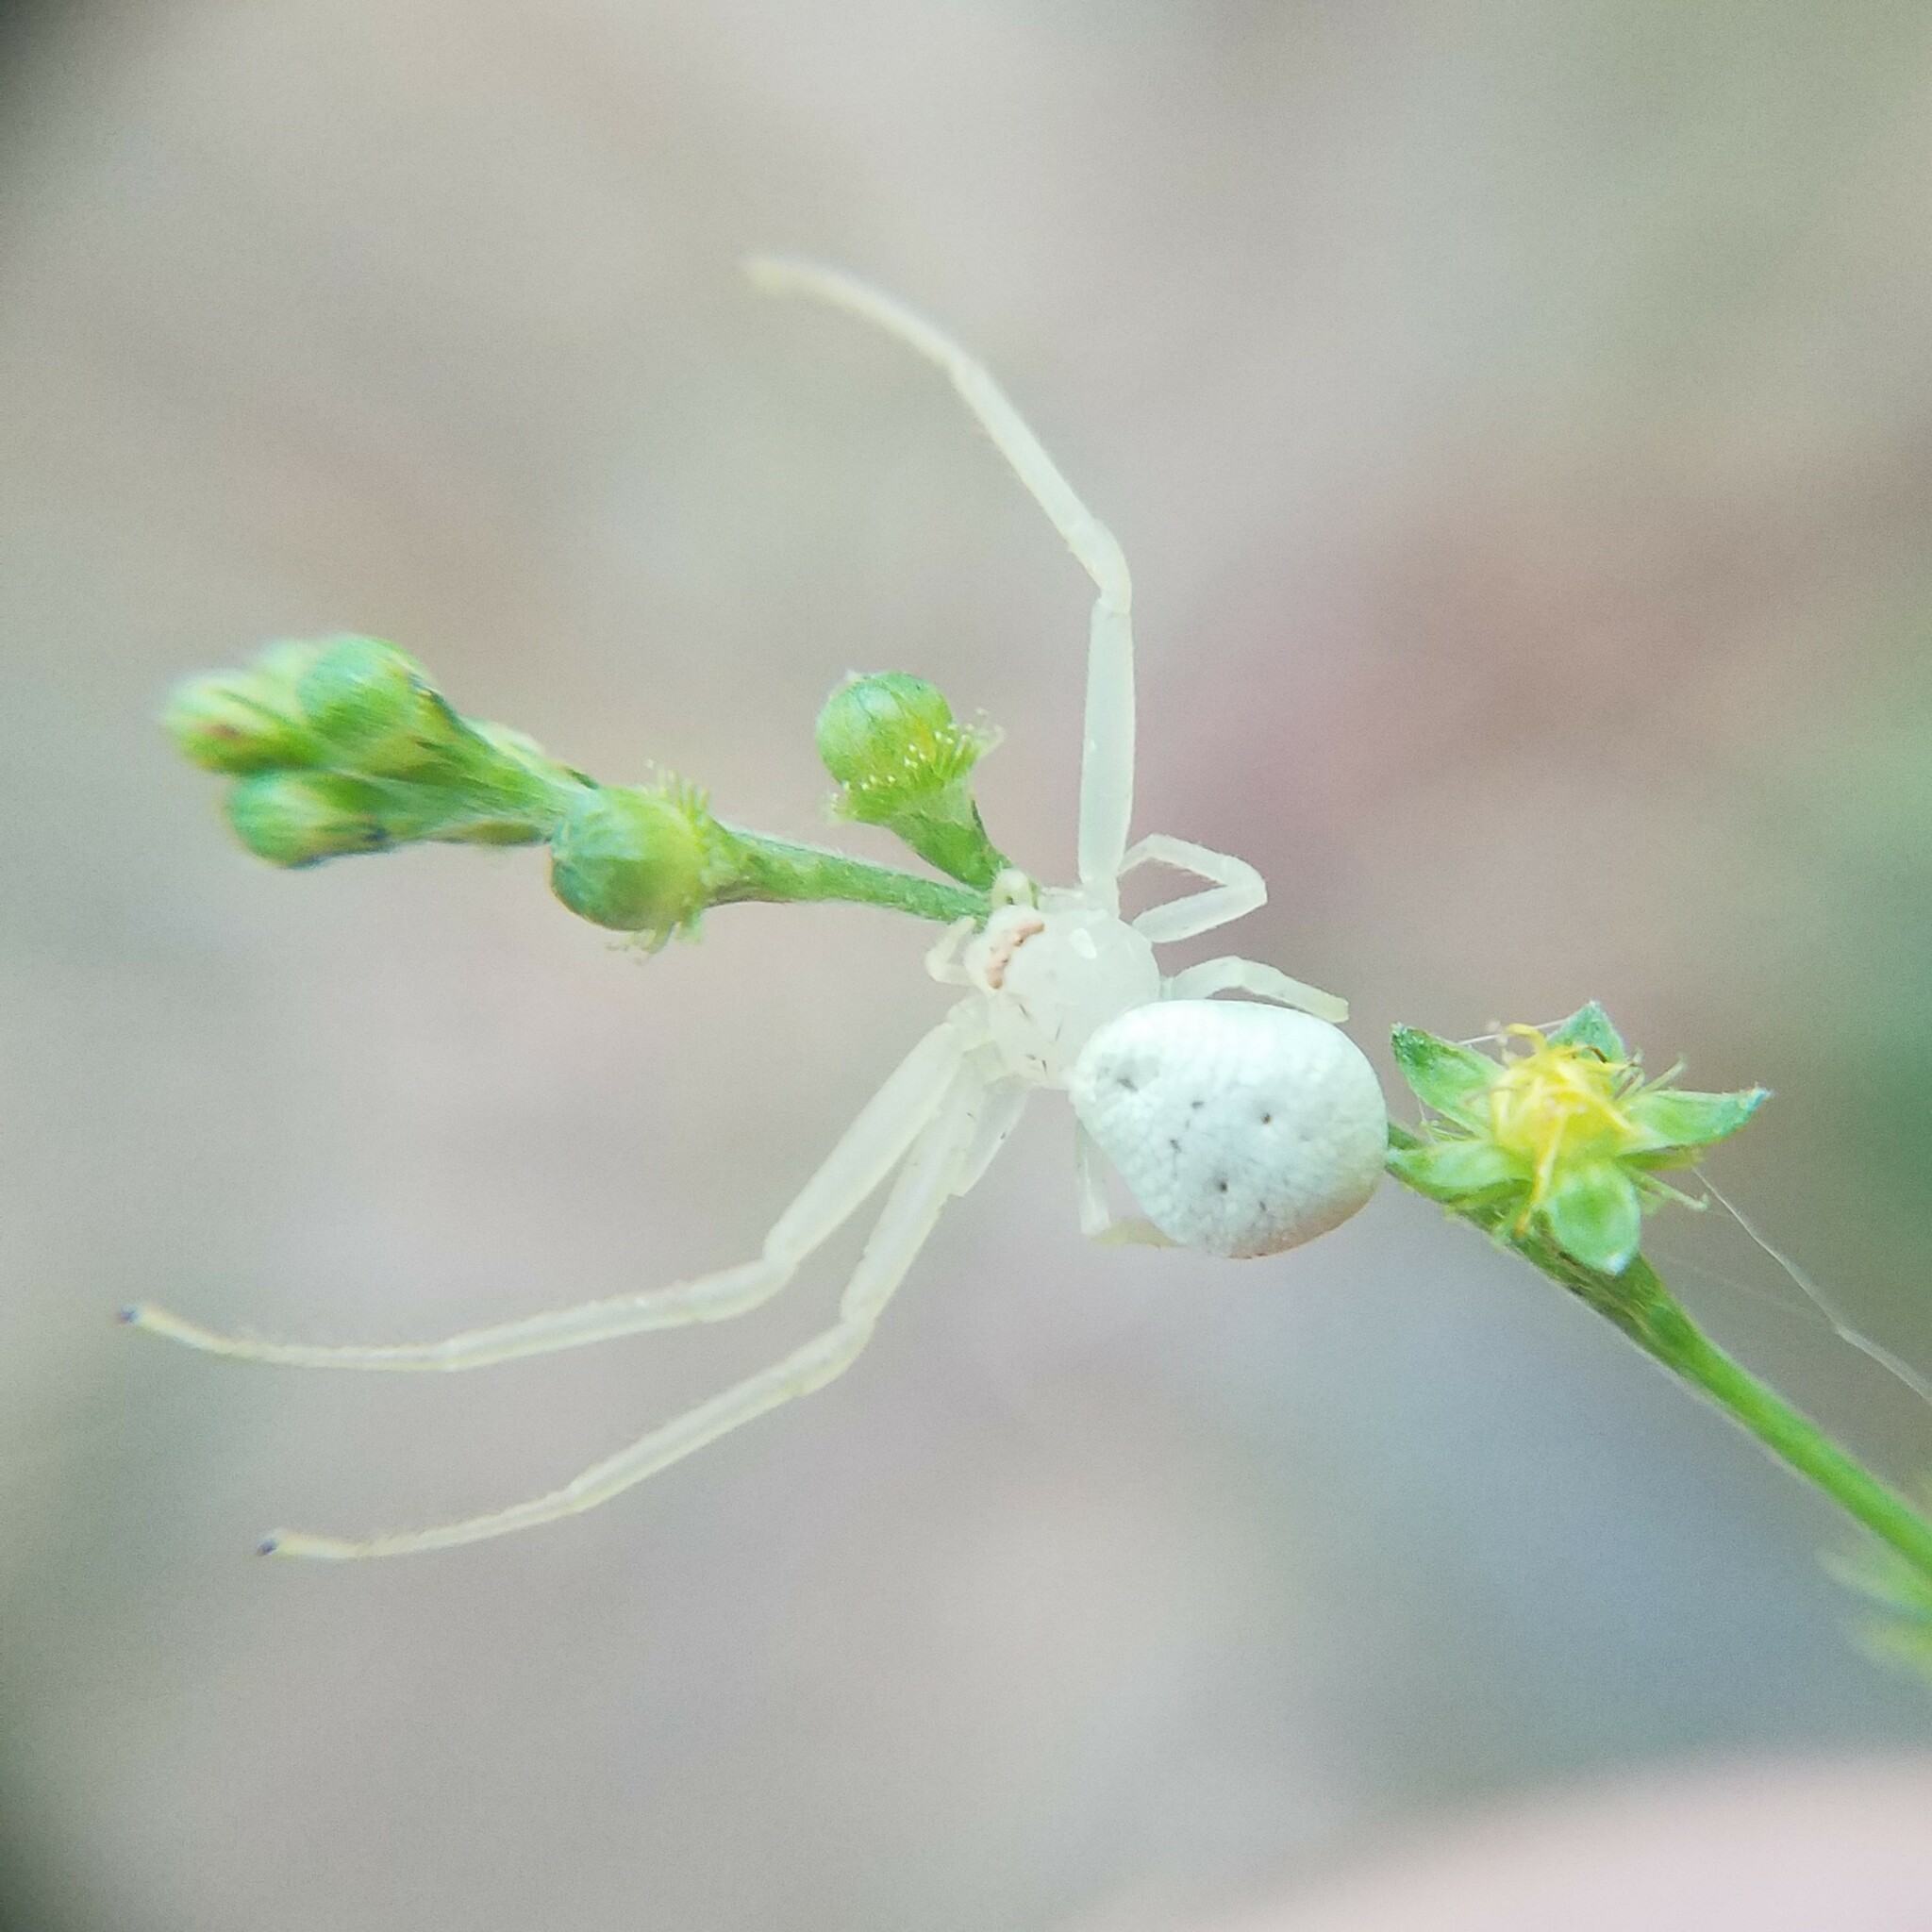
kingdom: Animalia
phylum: Arthropoda
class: Arachnida
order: Araneae
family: Thomisidae
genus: Misumessus
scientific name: Misumessus oblongus
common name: American green crab spider
